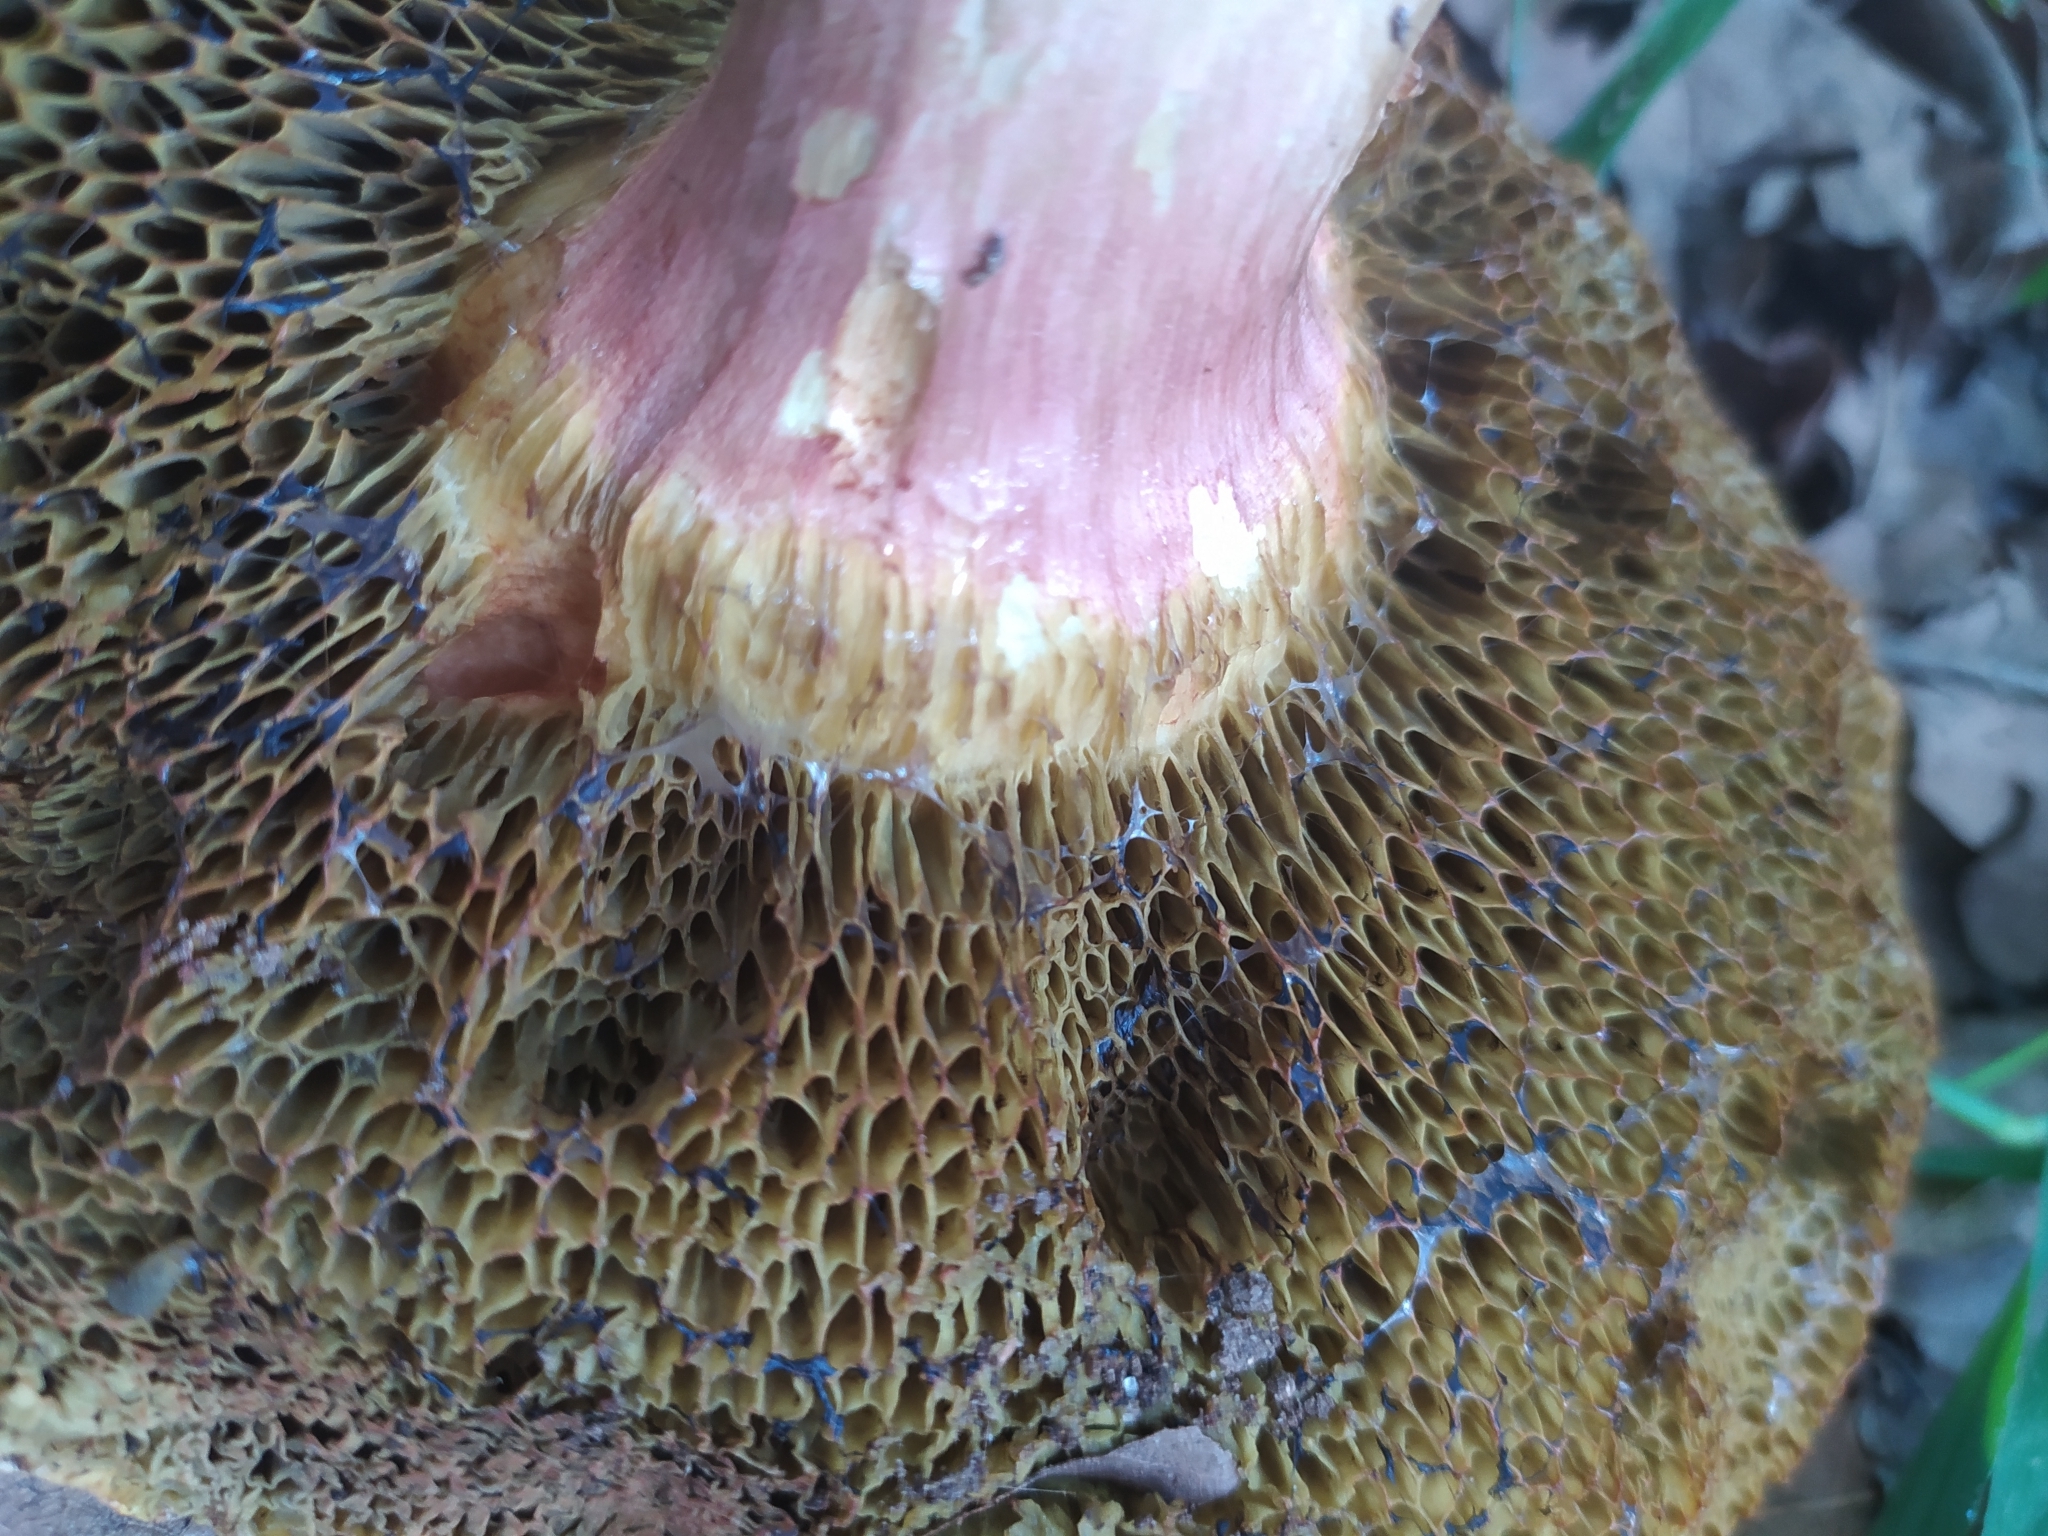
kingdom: Fungi
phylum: Basidiomycota
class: Agaricomycetes
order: Boletales
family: Boletaceae
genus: Xerocomellus
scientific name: Xerocomellus chrysenteron
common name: Red-cracking bolete
